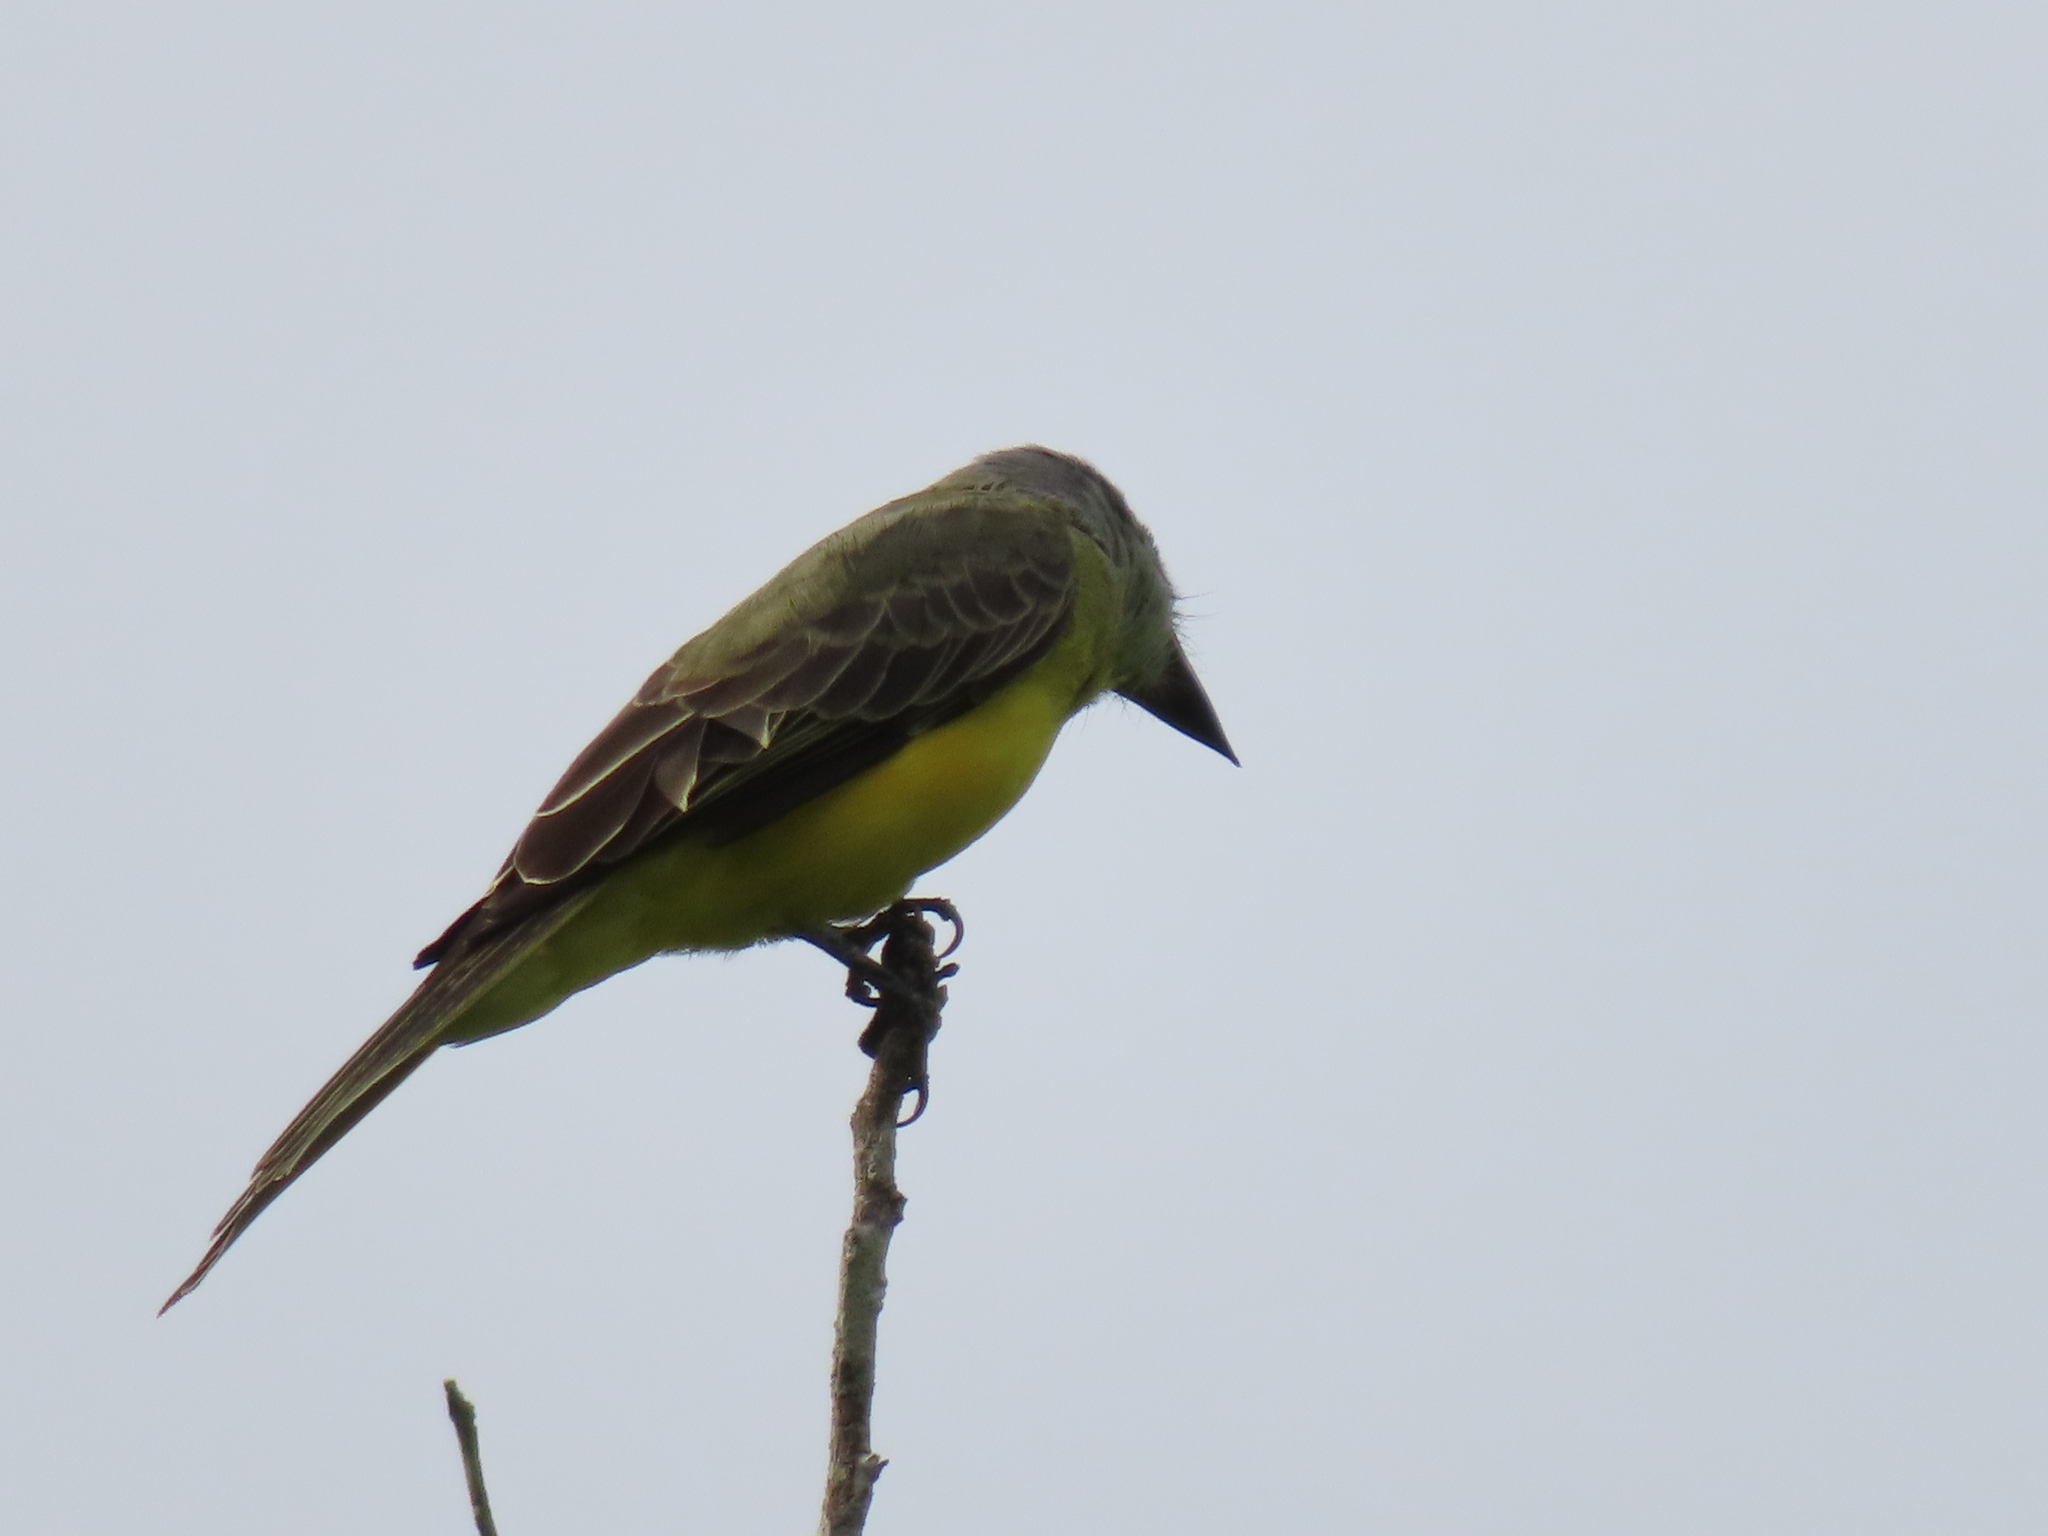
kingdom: Animalia
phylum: Chordata
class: Aves
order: Passeriformes
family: Tyrannidae
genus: Tyrannus
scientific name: Tyrannus melancholicus
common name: Tropical kingbird
